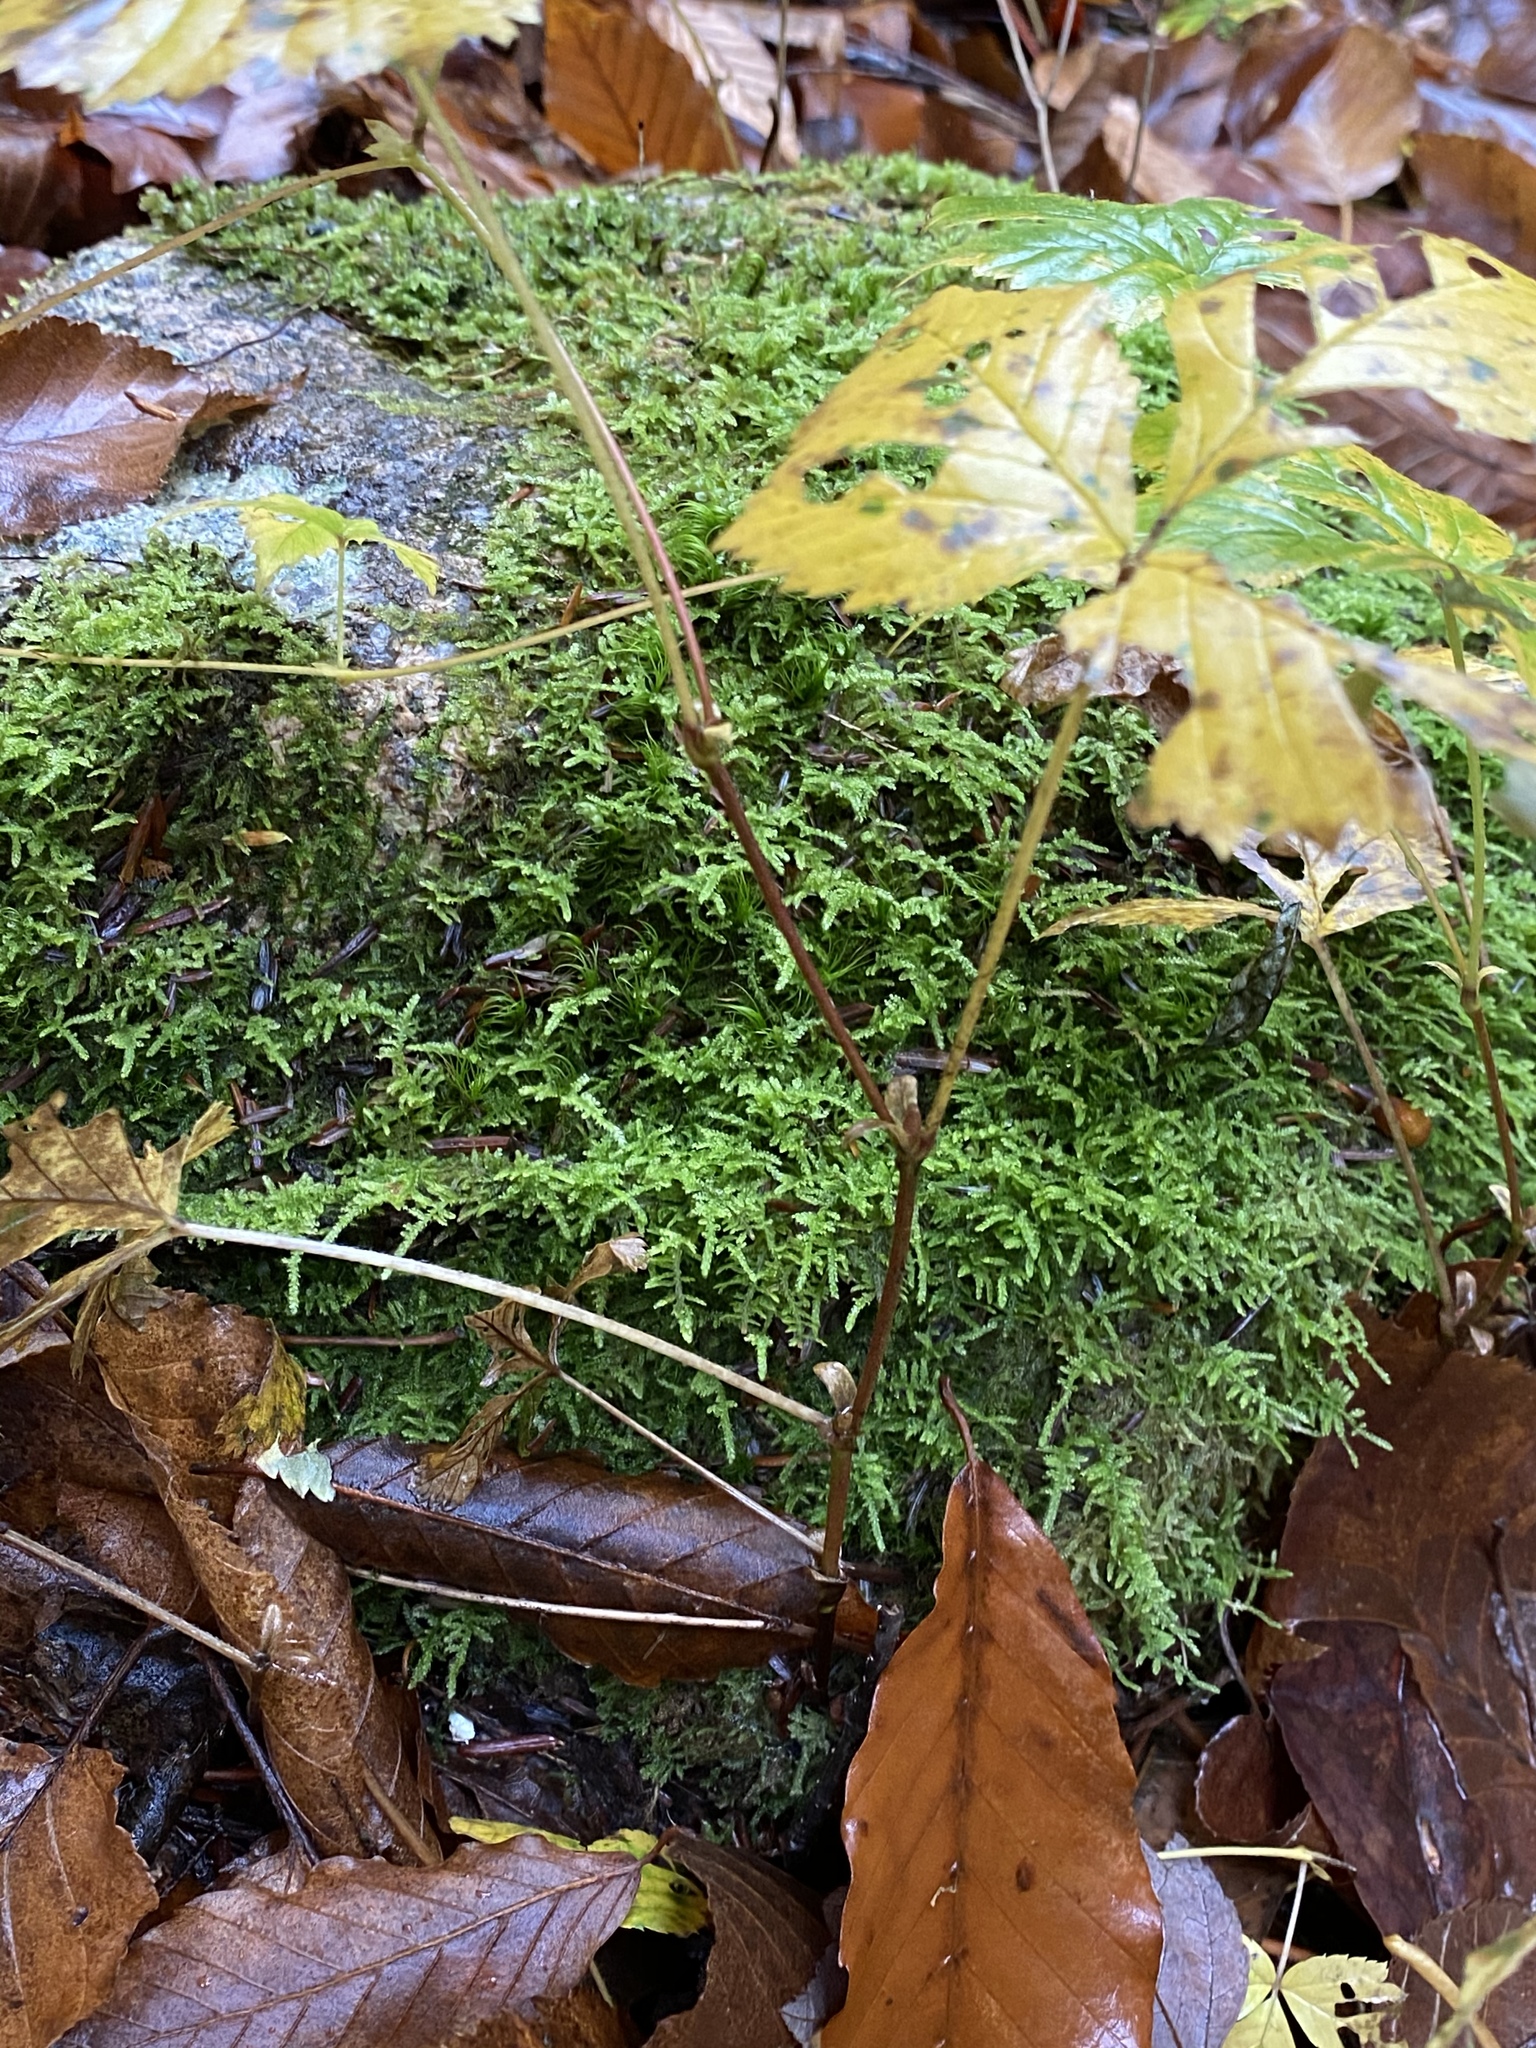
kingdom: Plantae
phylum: Tracheophyta
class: Magnoliopsida
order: Rosales
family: Rosaceae
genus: Rubus
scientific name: Rubus pubescens
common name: Dwarf raspberry
